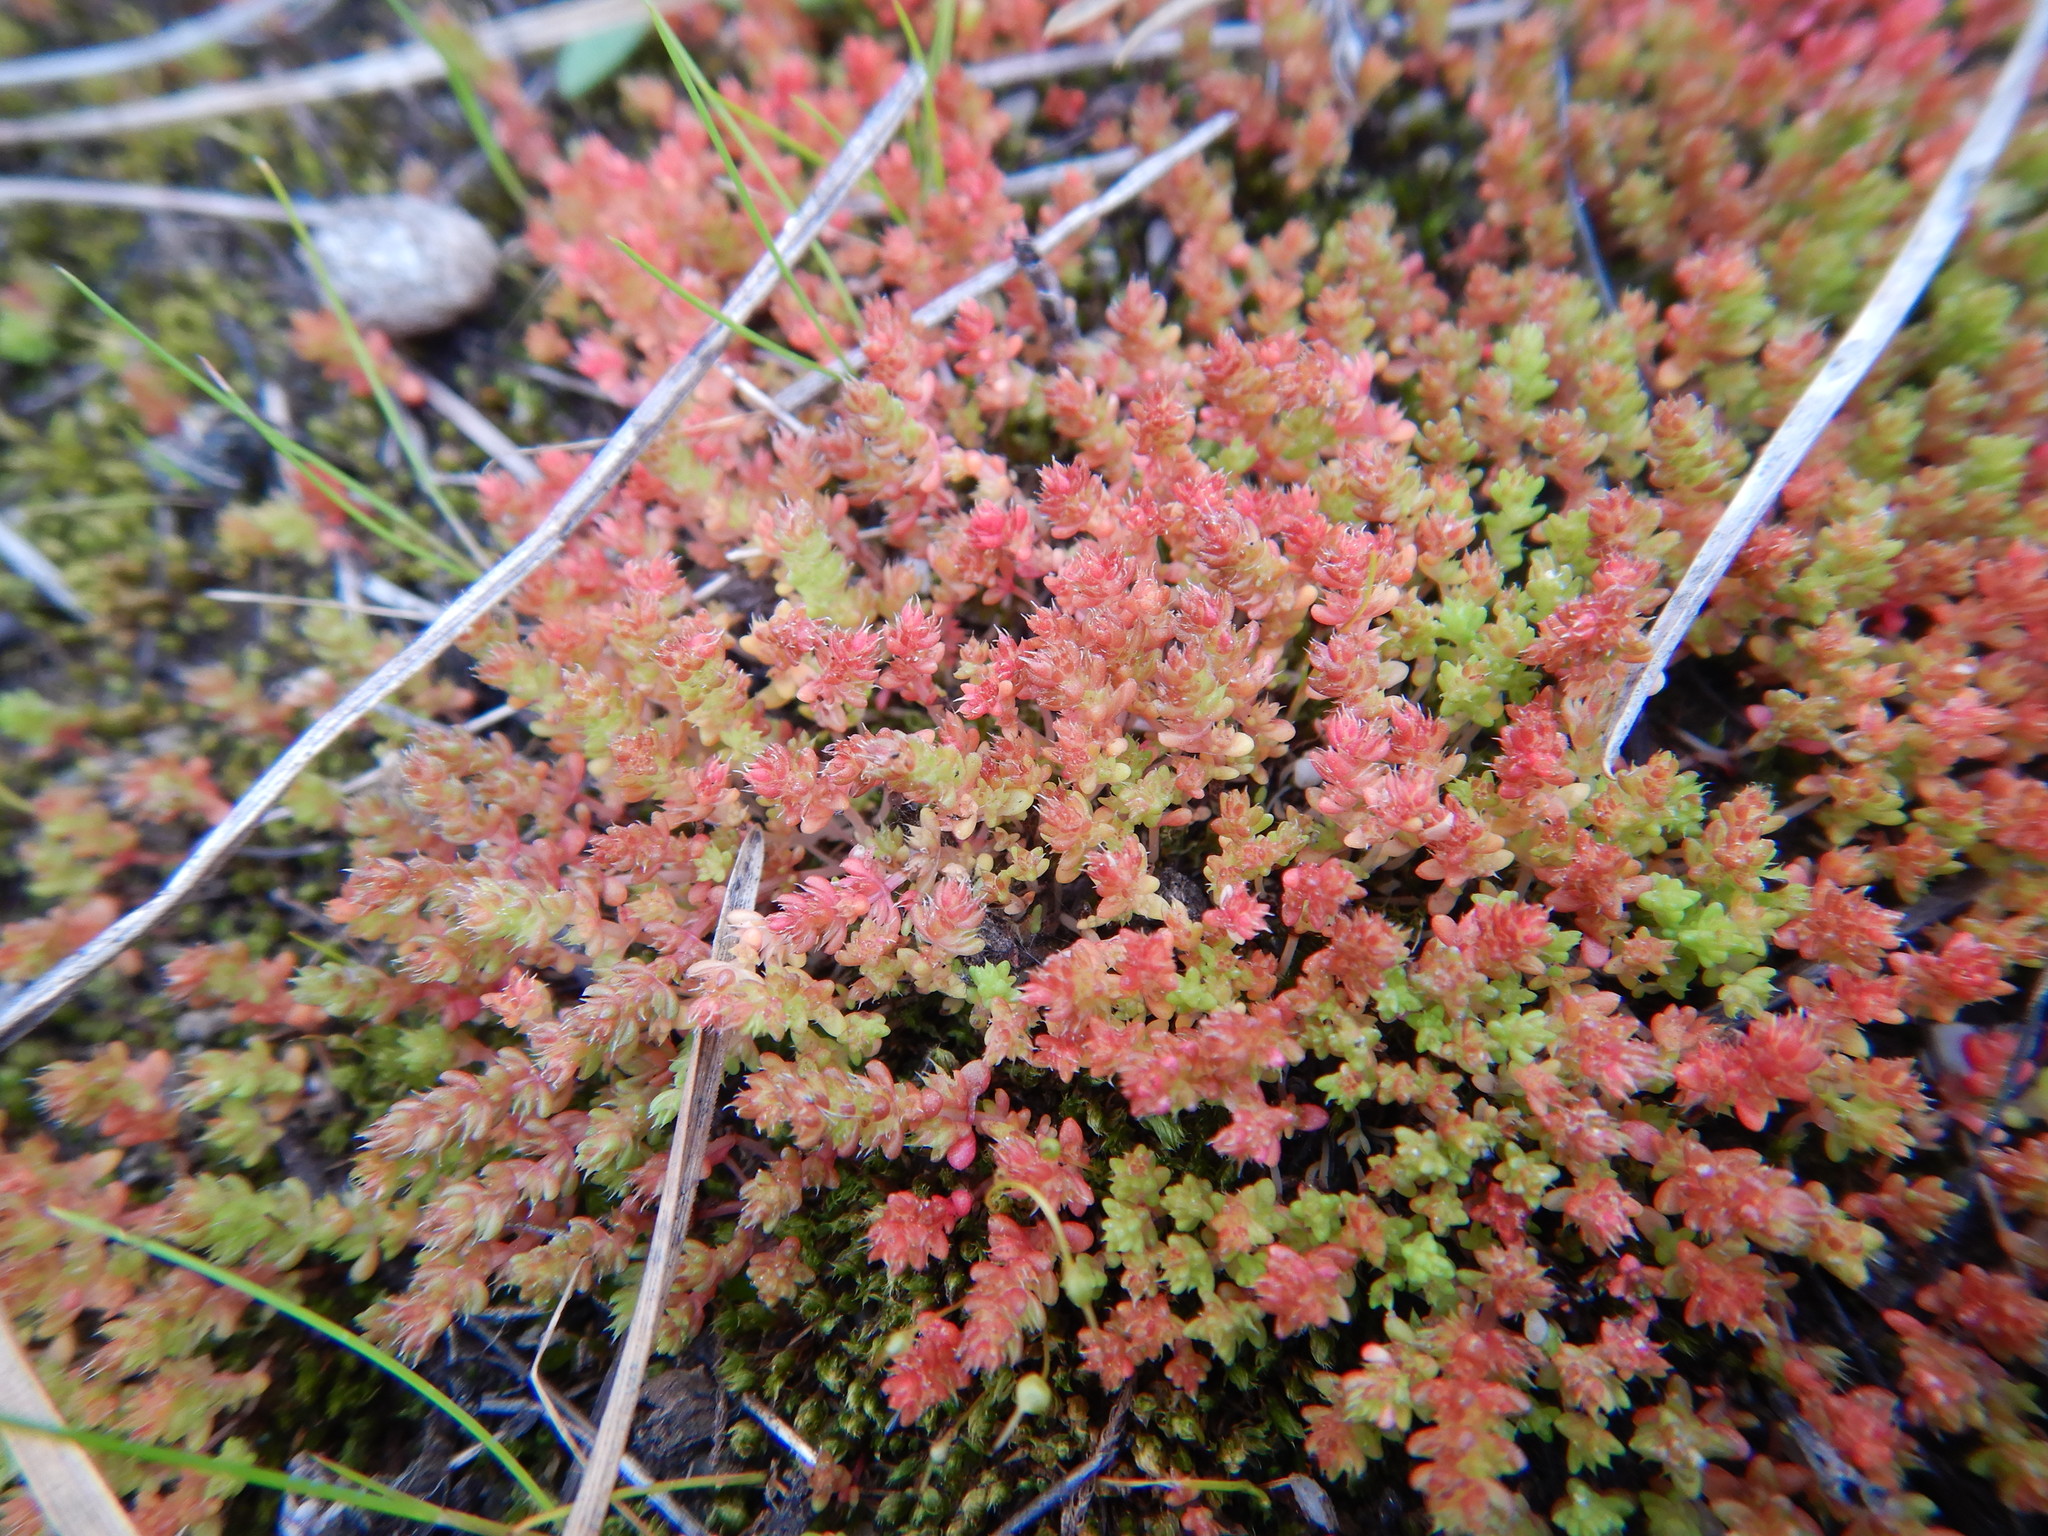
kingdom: Plantae
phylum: Tracheophyta
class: Magnoliopsida
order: Saxifragales
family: Crassulaceae
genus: Crassula
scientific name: Crassula tillaea
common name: Mossy stonecrop
